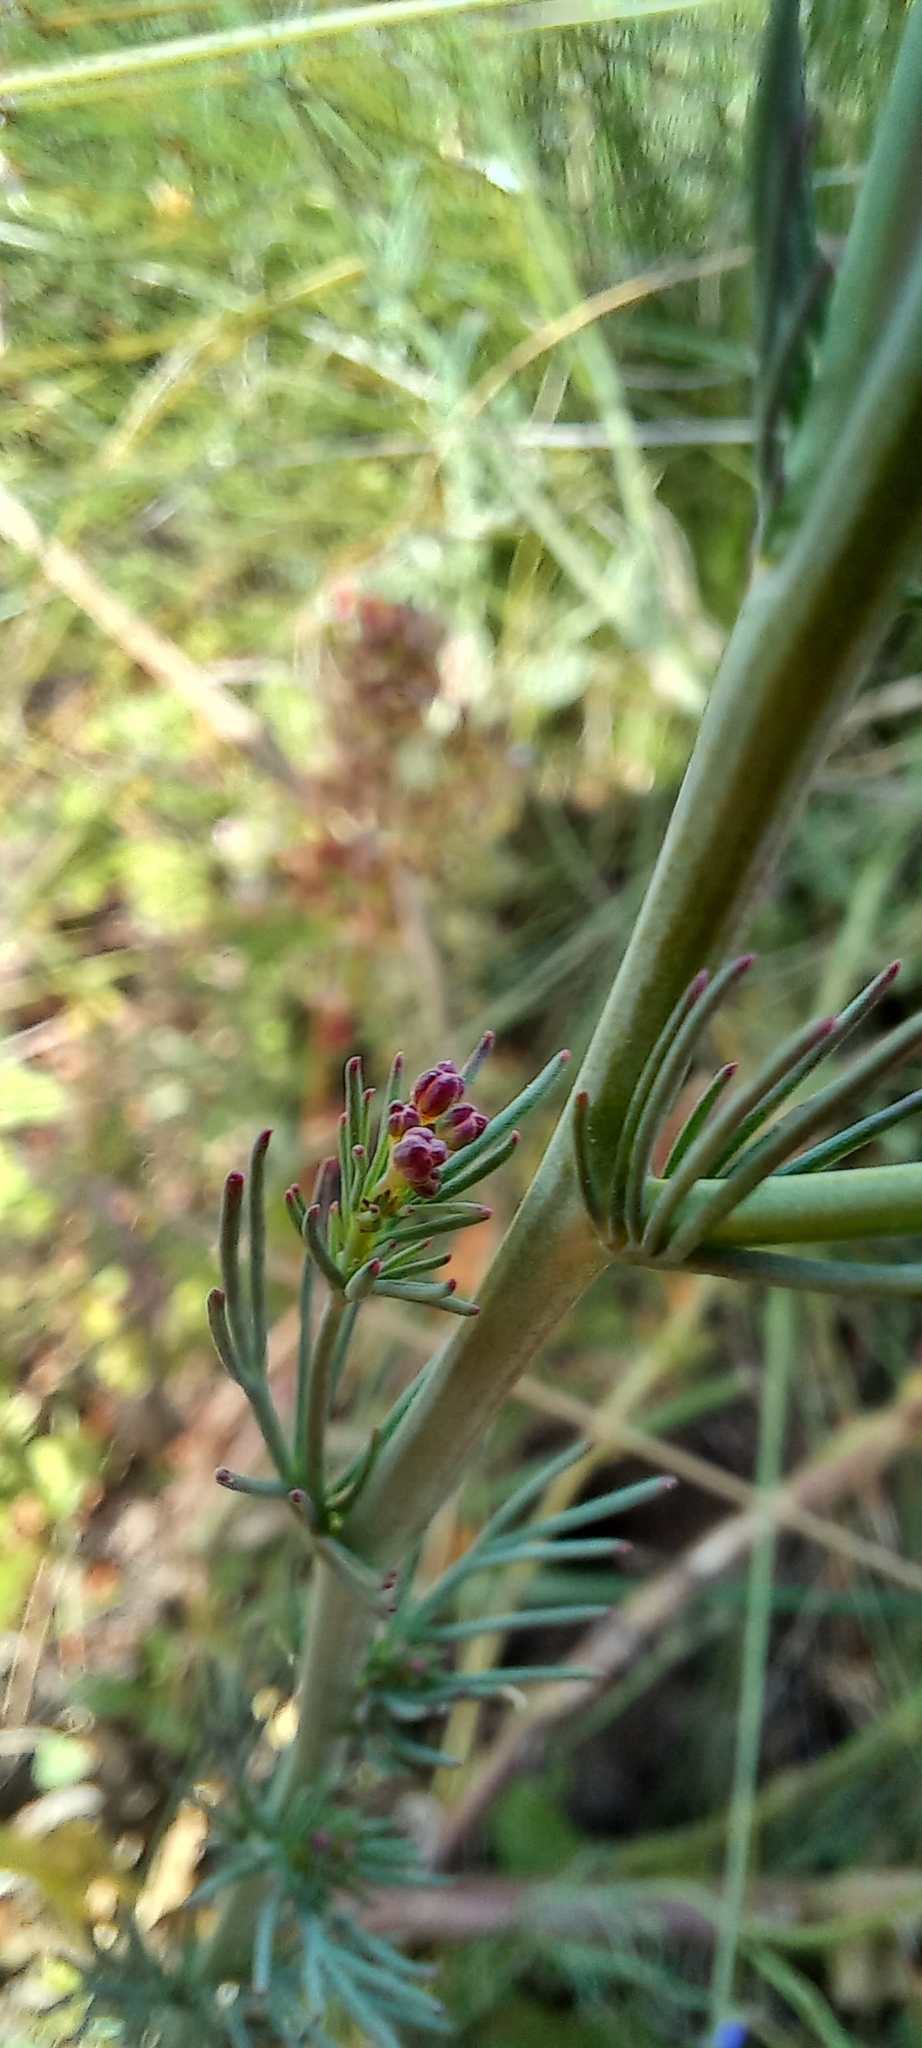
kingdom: Plantae
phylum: Tracheophyta
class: Magnoliopsida
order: Brassicales
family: Brassicaceae
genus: Heliophila
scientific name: Heliophila digitata
